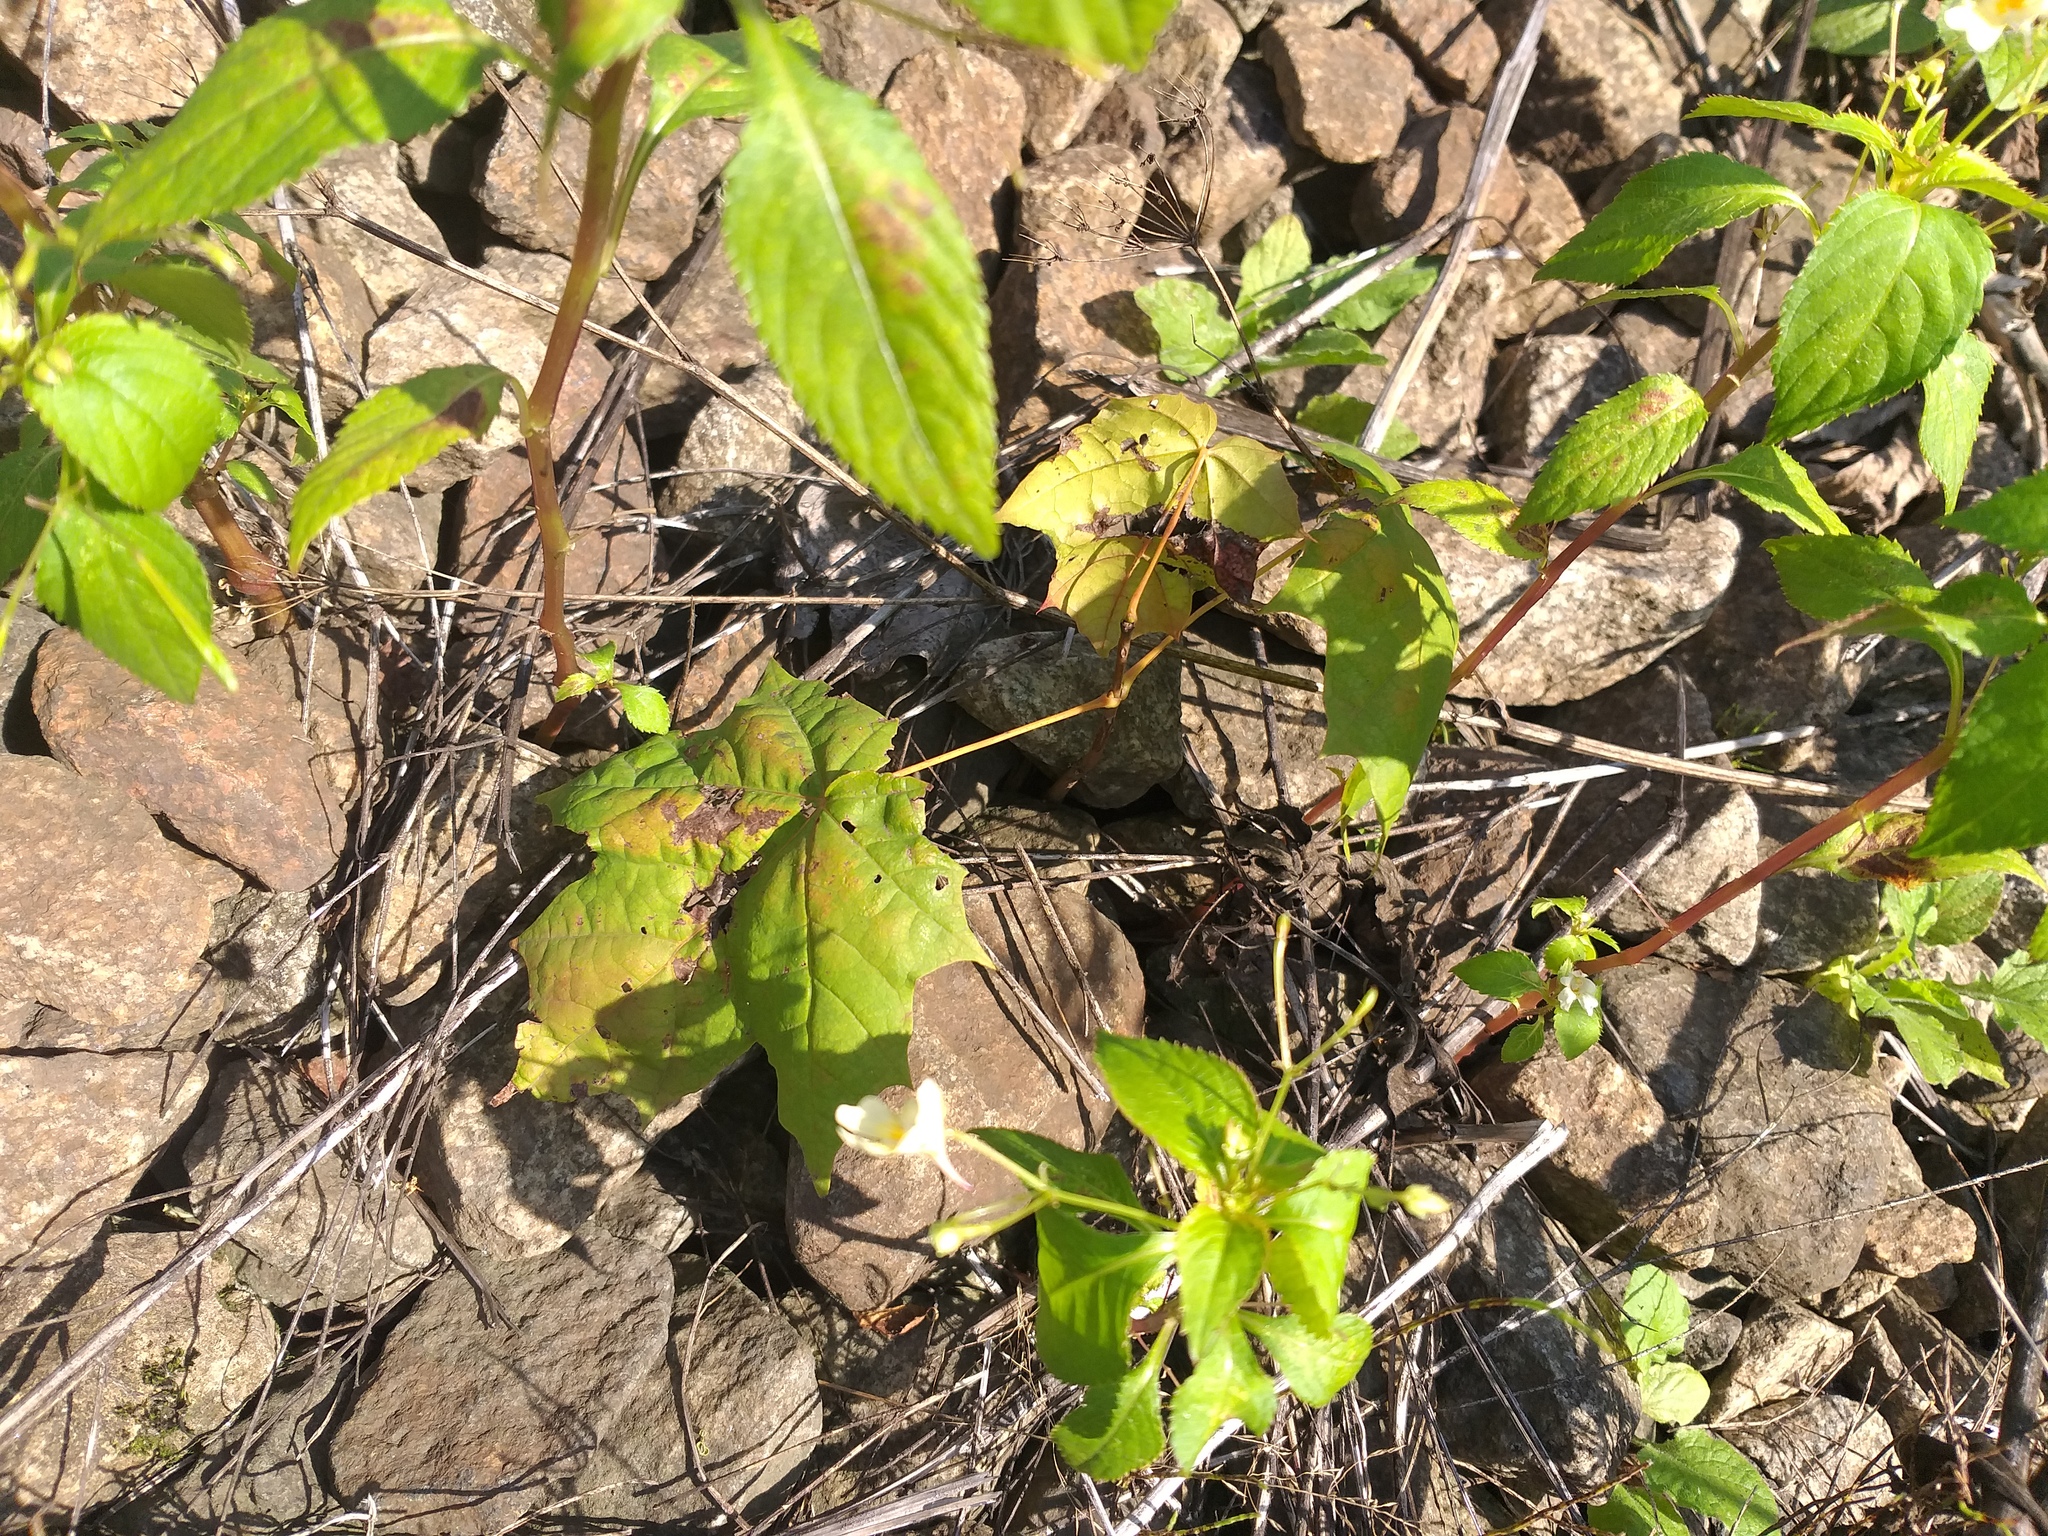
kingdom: Plantae
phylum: Tracheophyta
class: Magnoliopsida
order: Sapindales
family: Sapindaceae
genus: Acer
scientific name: Acer platanoides
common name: Norway maple
